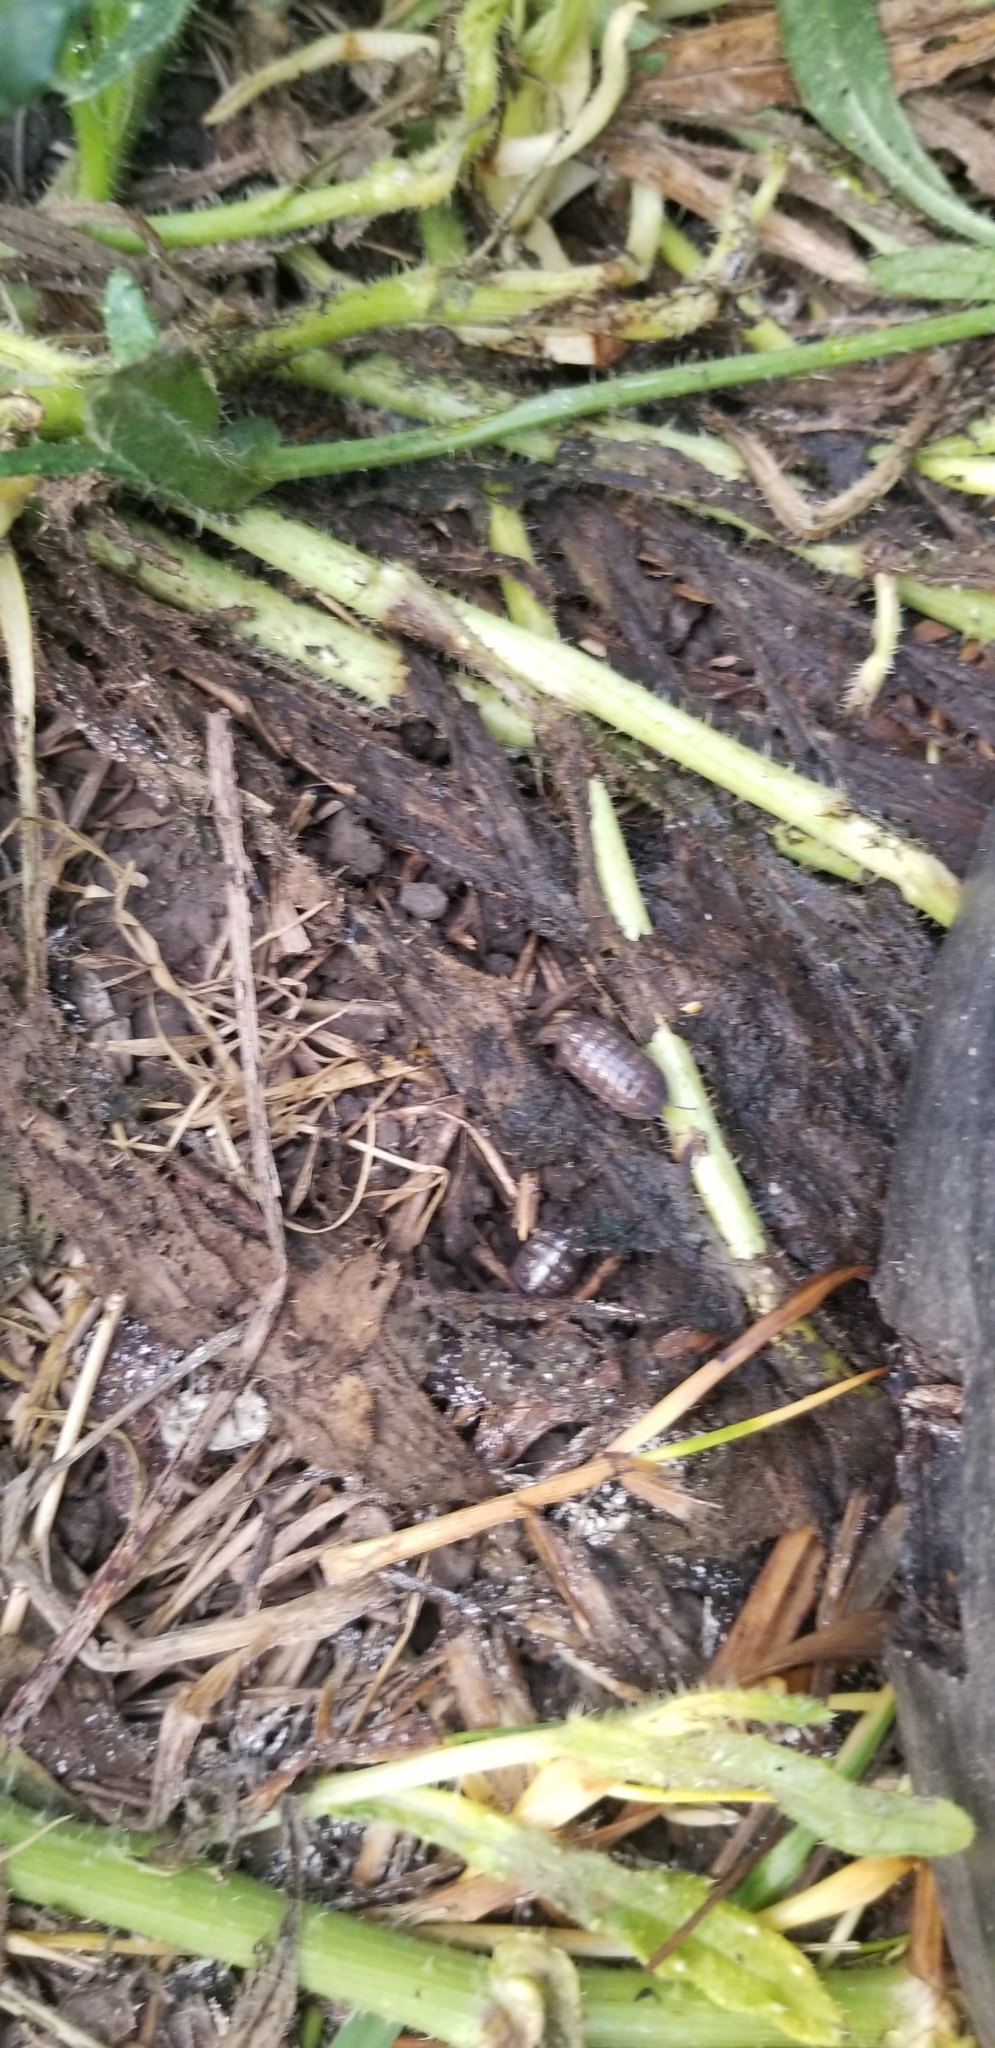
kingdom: Animalia
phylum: Arthropoda
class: Malacostraca
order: Isopoda
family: Armadillidiidae
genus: Armadillidium
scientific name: Armadillidium vulgare
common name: Common pill woodlouse
